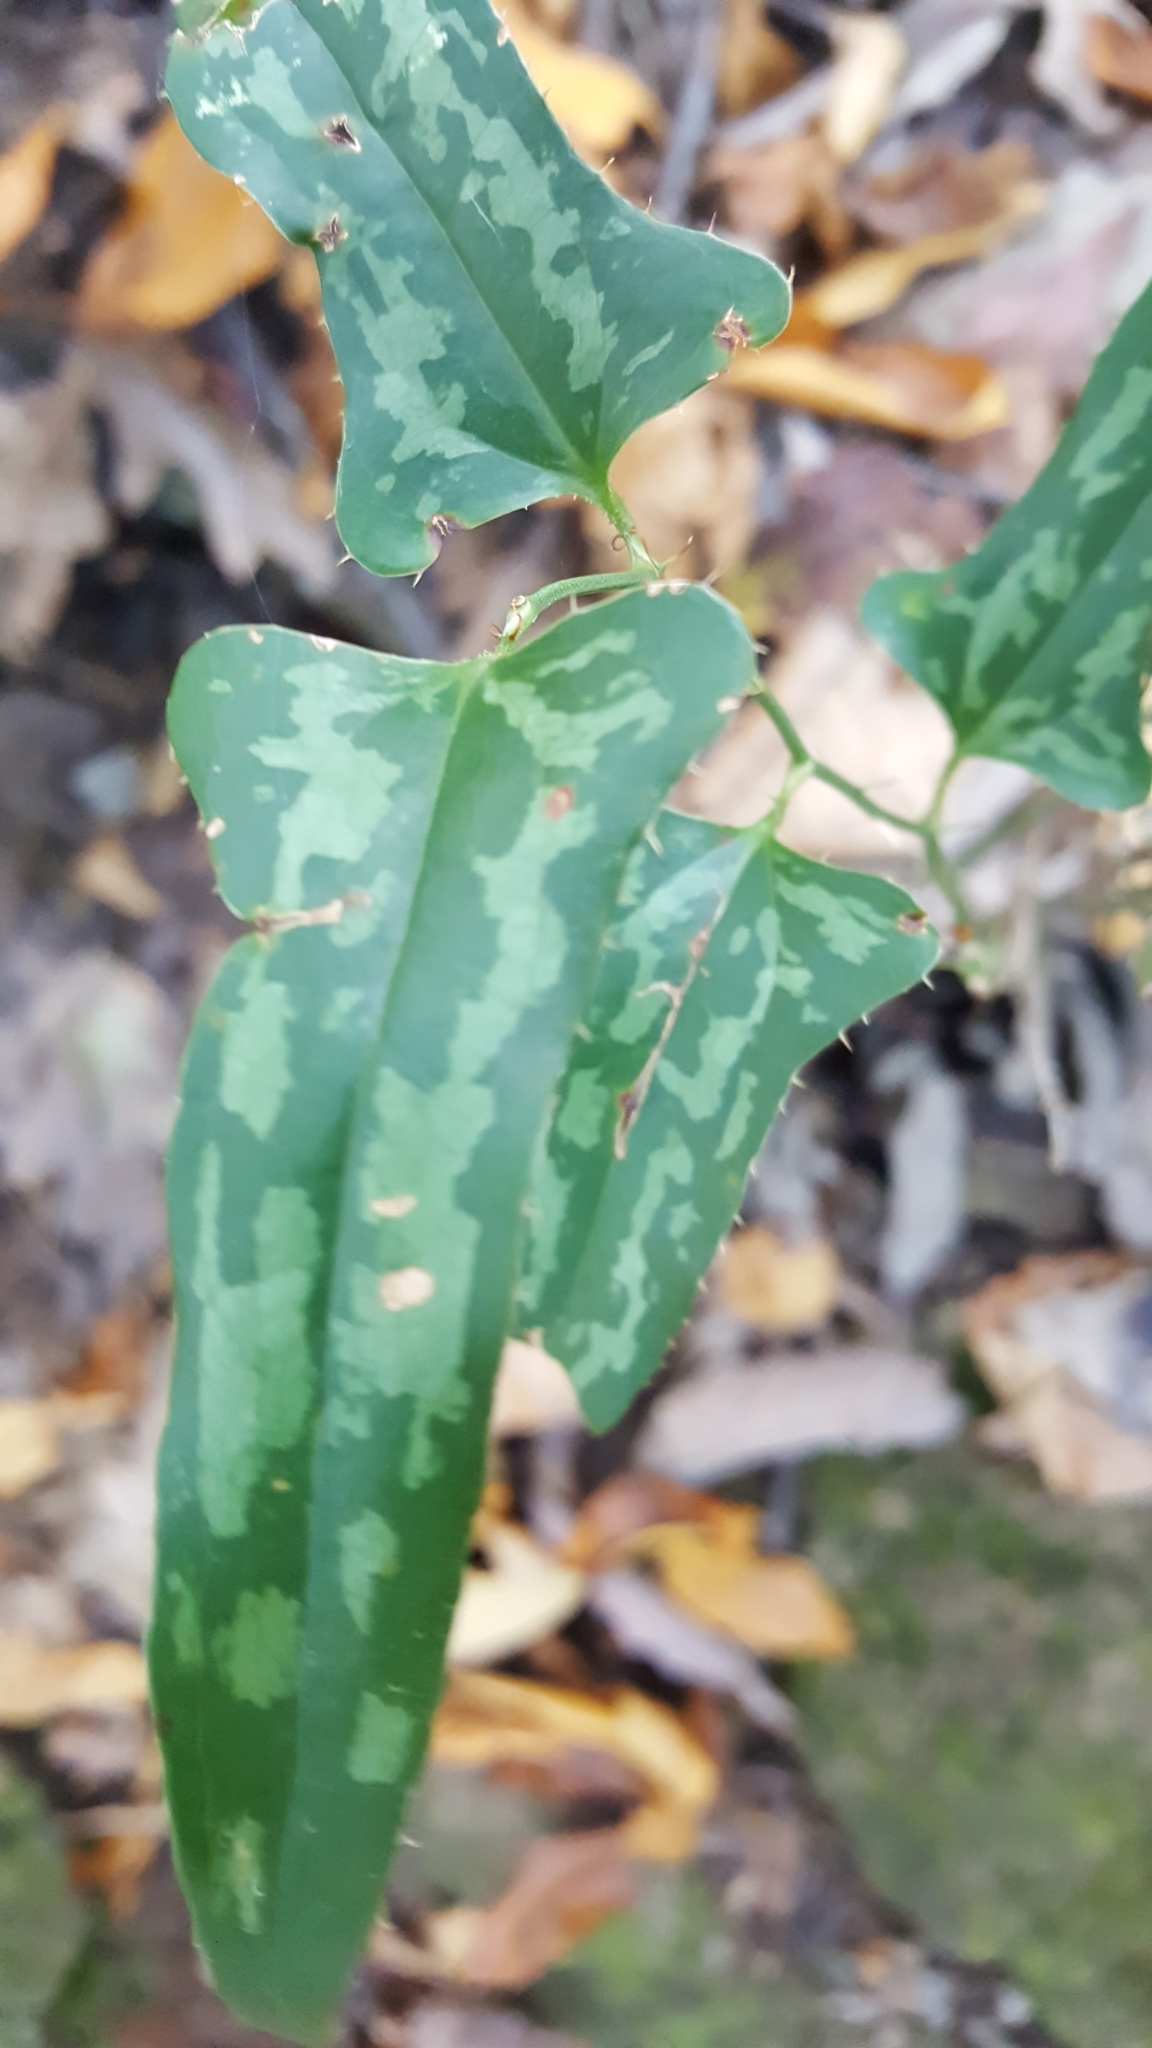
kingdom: Plantae
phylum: Tracheophyta
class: Liliopsida
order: Liliales
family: Smilacaceae
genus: Smilax
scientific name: Smilax bona-nox
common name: Catbrier
